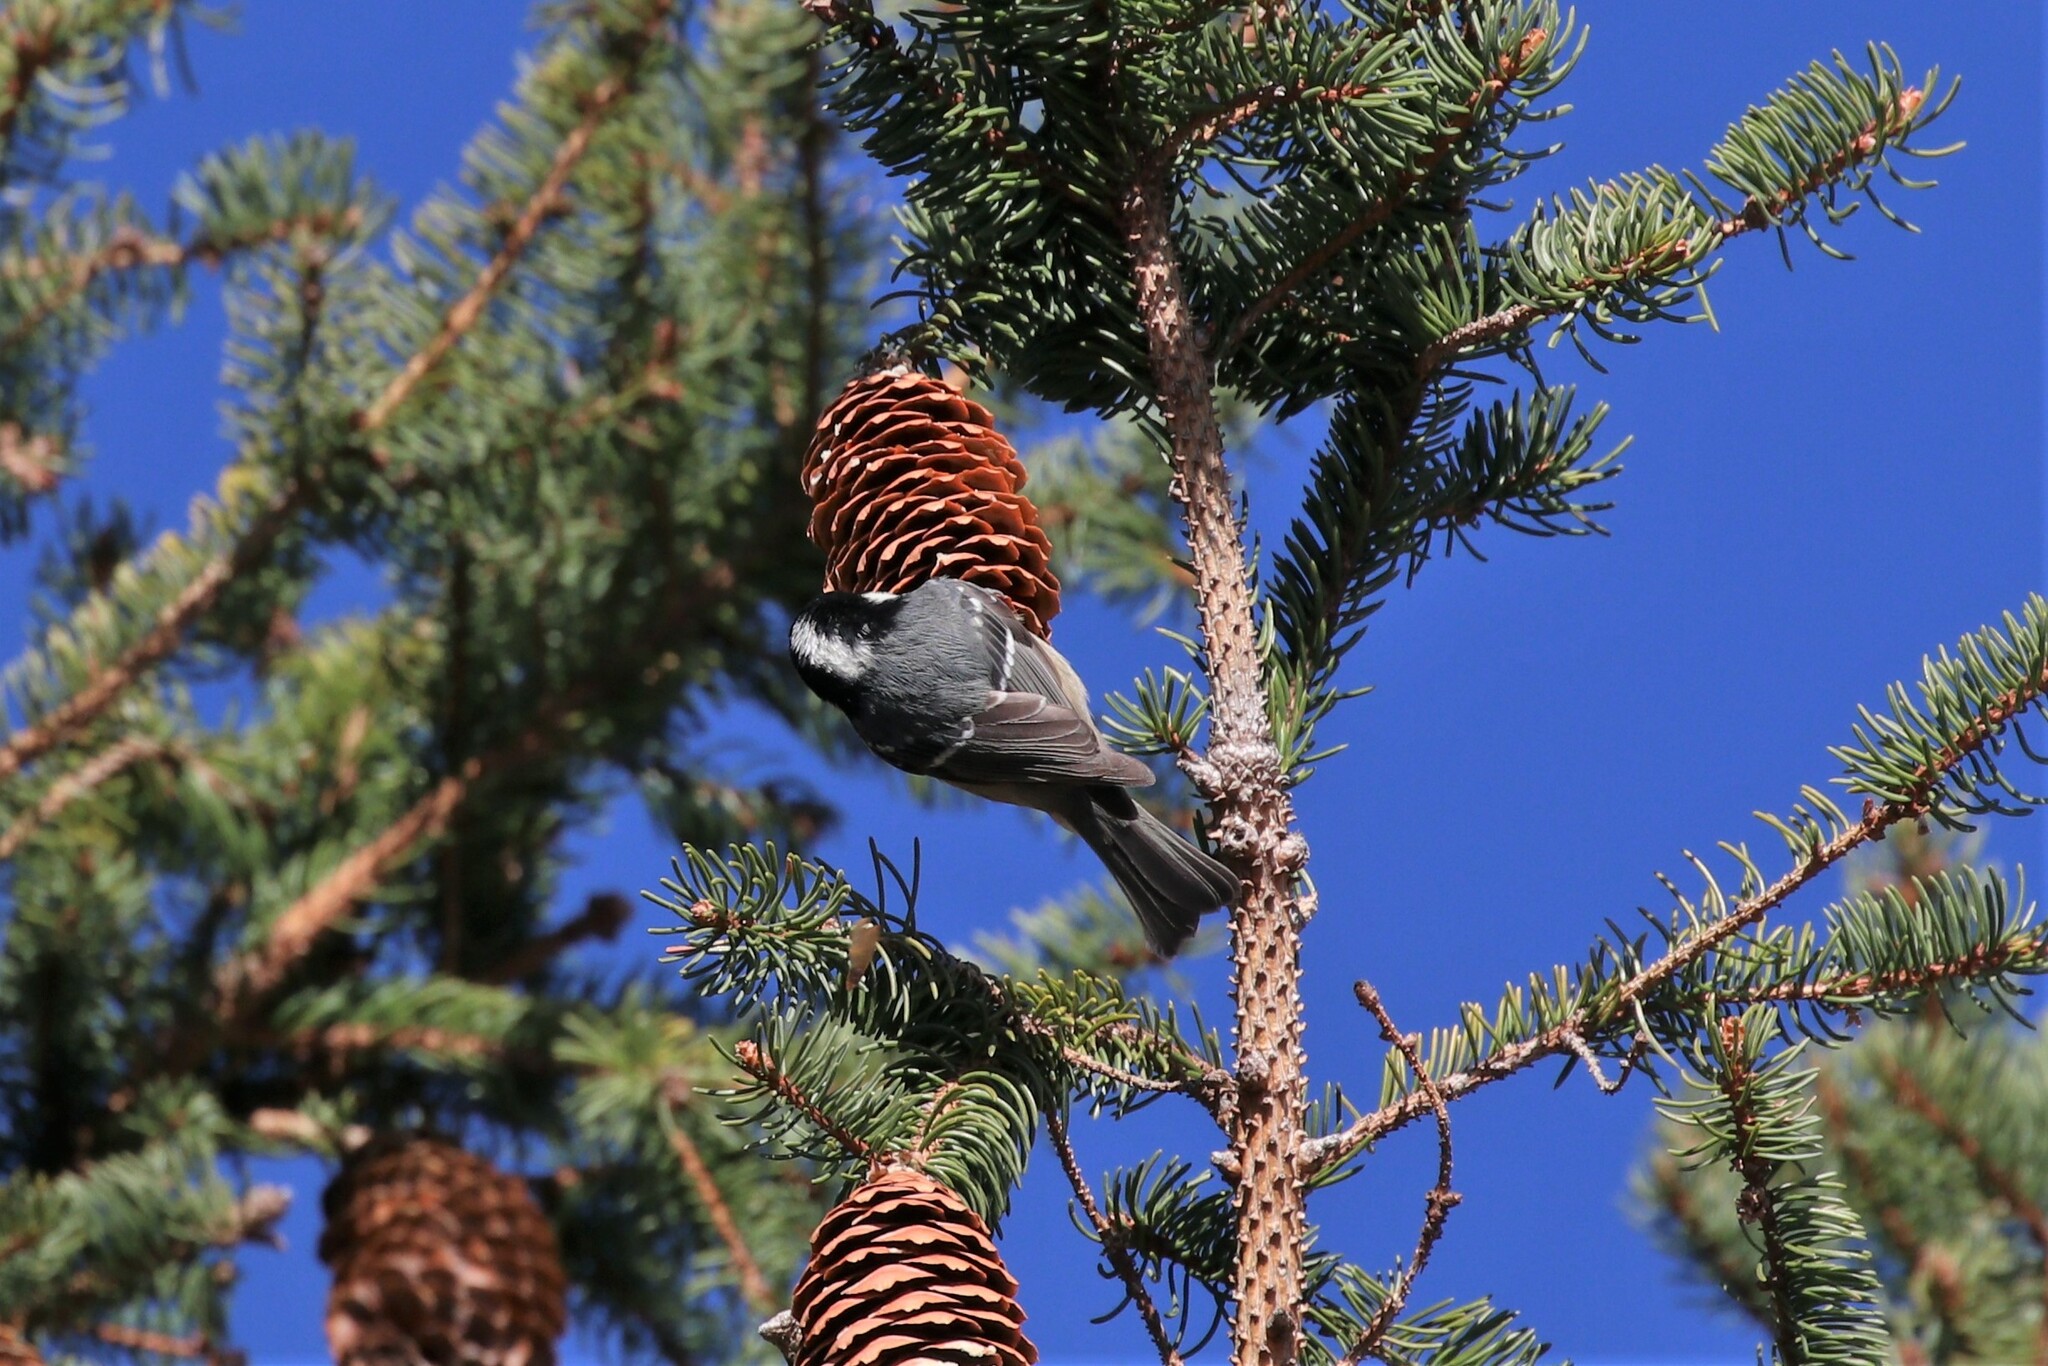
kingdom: Animalia
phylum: Chordata
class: Aves
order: Passeriformes
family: Paridae
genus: Periparus
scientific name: Periparus ater
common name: Coal tit
